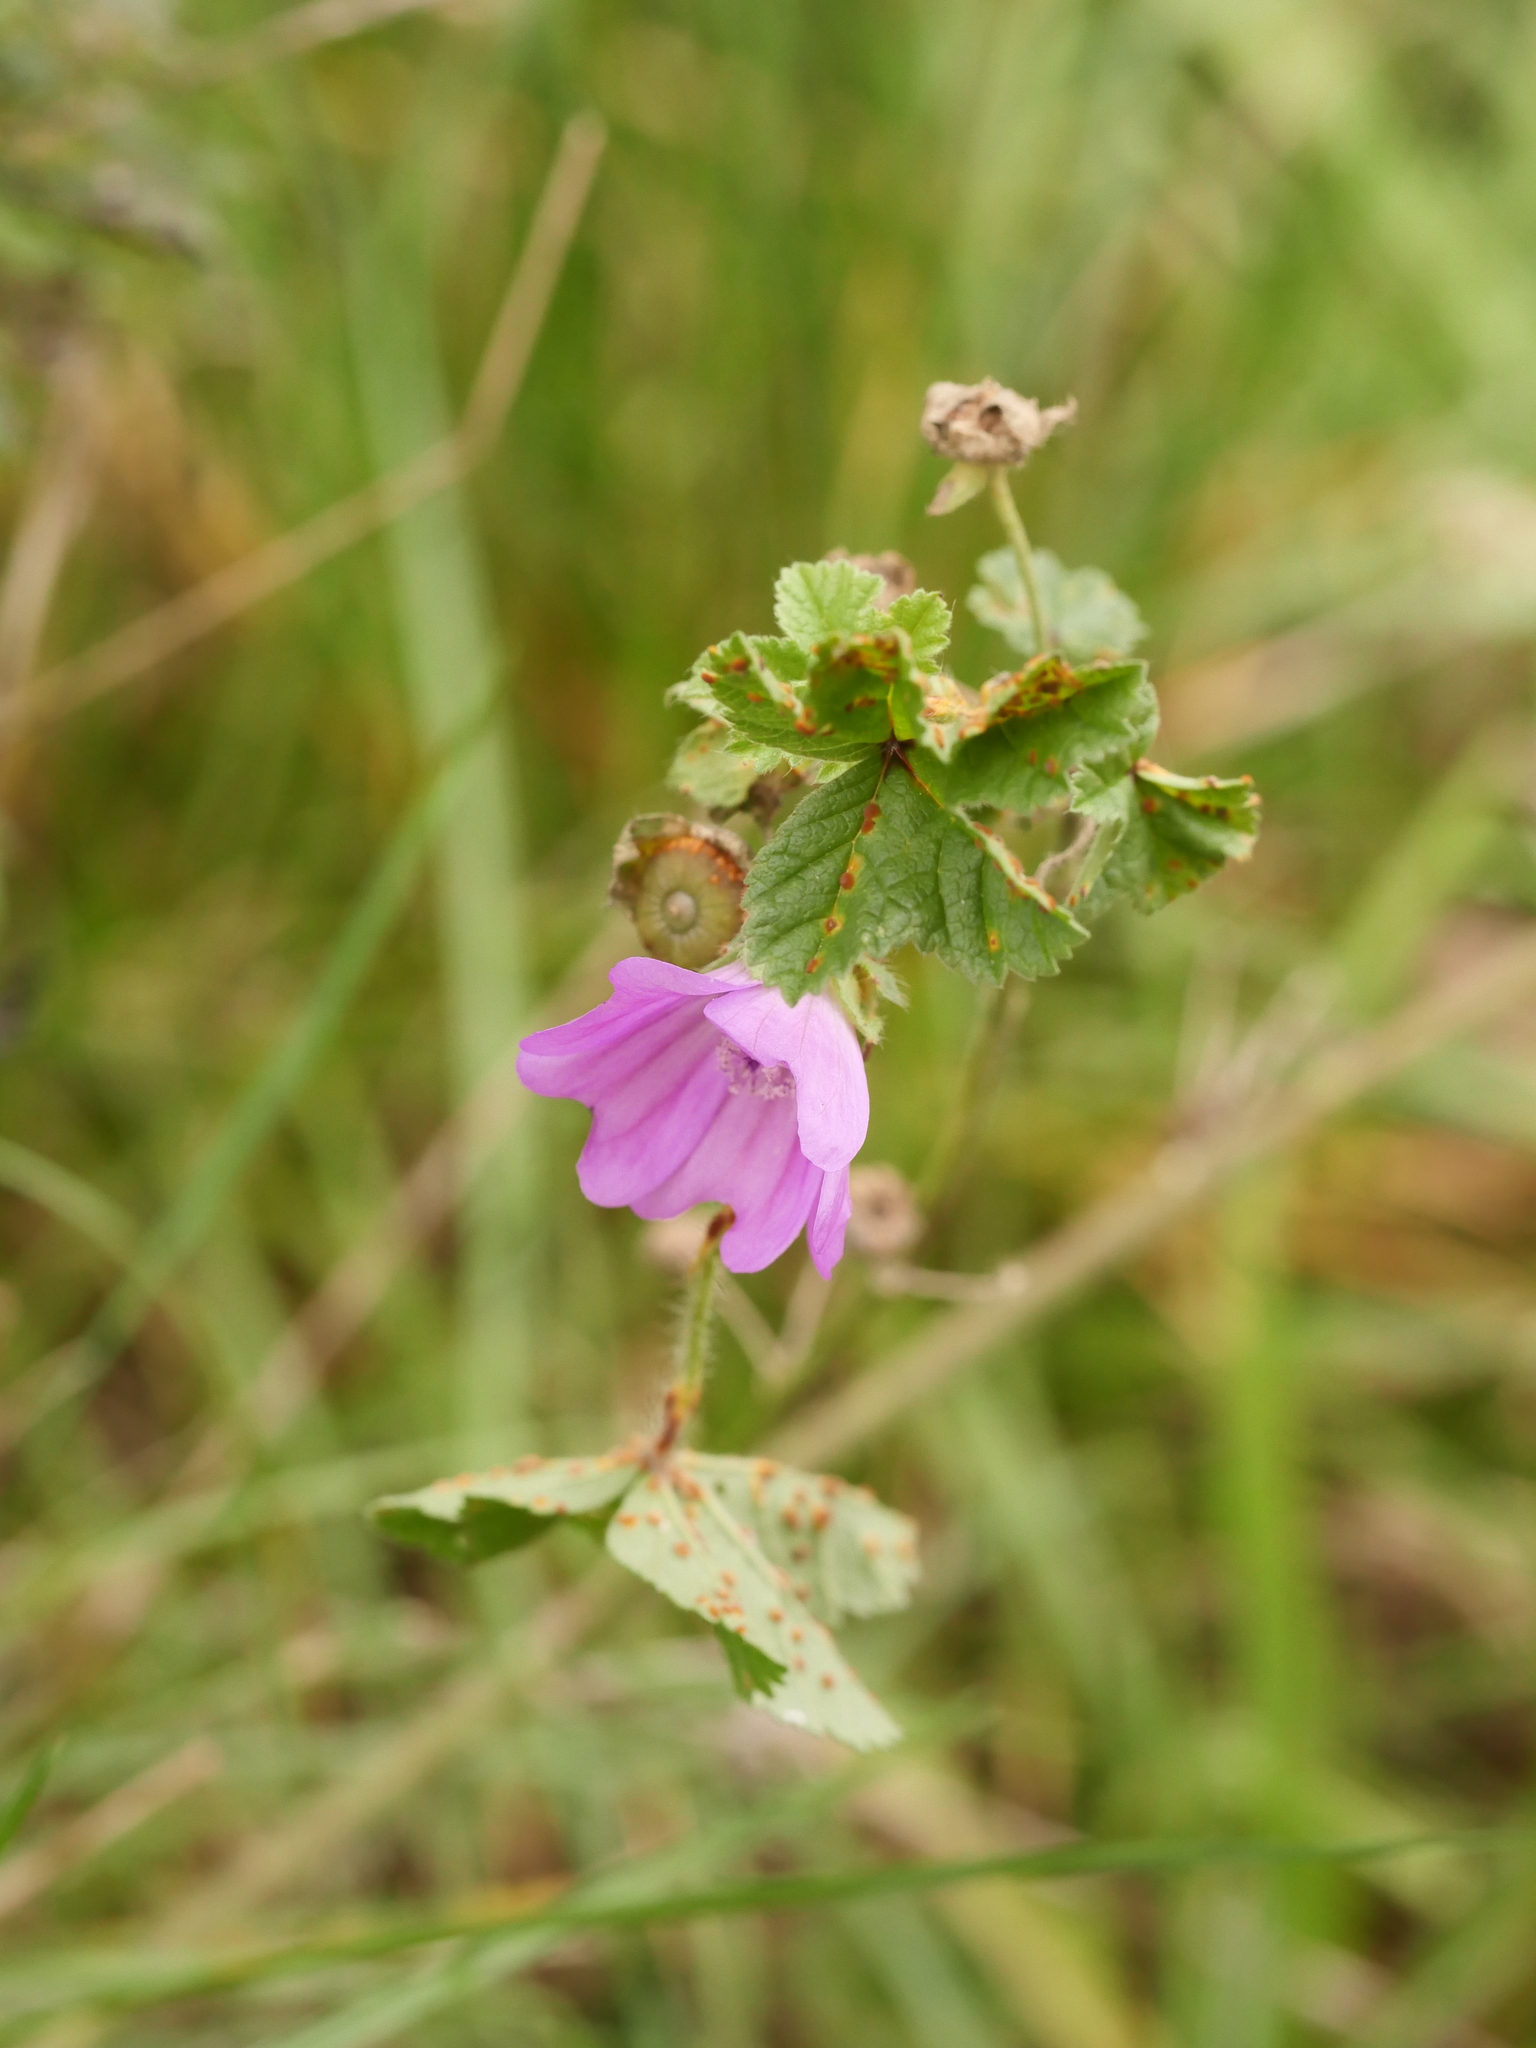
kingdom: Plantae
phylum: Tracheophyta
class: Magnoliopsida
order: Malvales
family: Malvaceae
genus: Malva
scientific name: Malva sylvestris
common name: Common mallow
